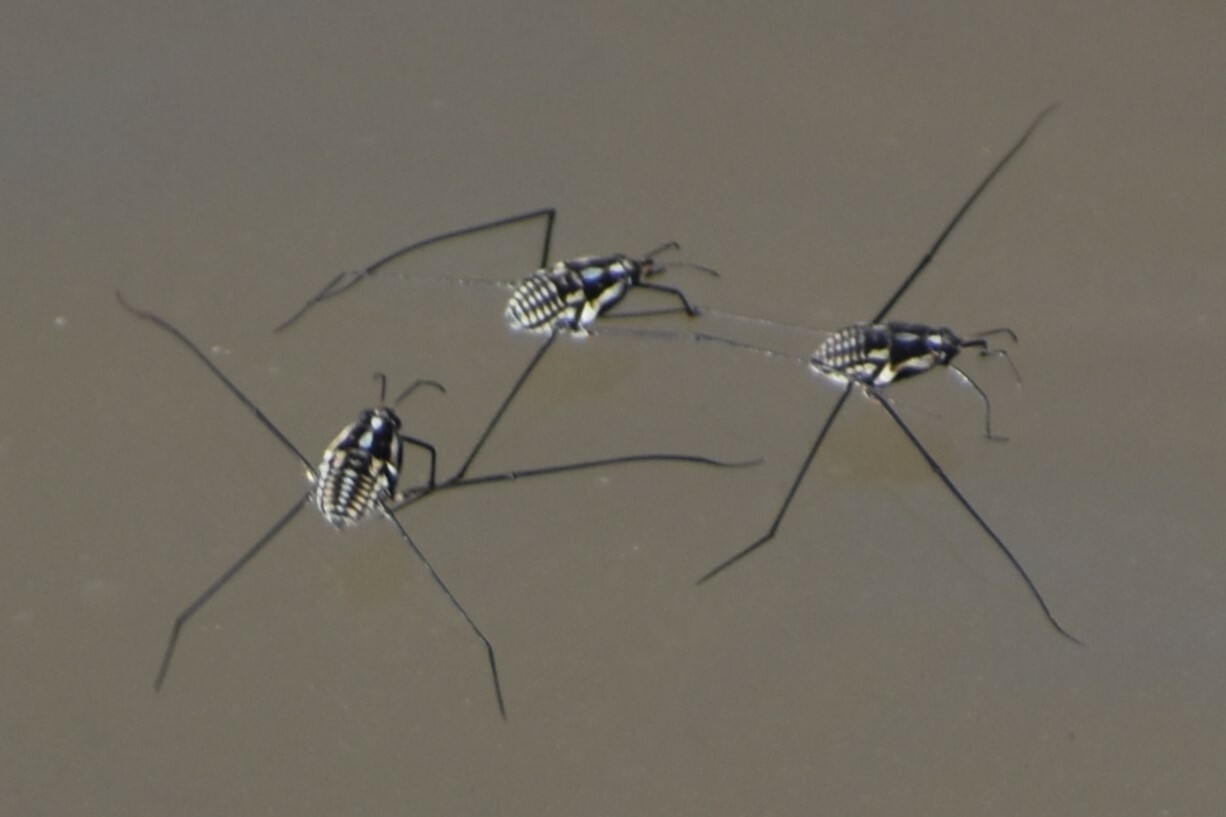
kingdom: Animalia
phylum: Arthropoda
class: Insecta
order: Hemiptera
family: Gerridae
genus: Metrobates
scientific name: Metrobates trux
